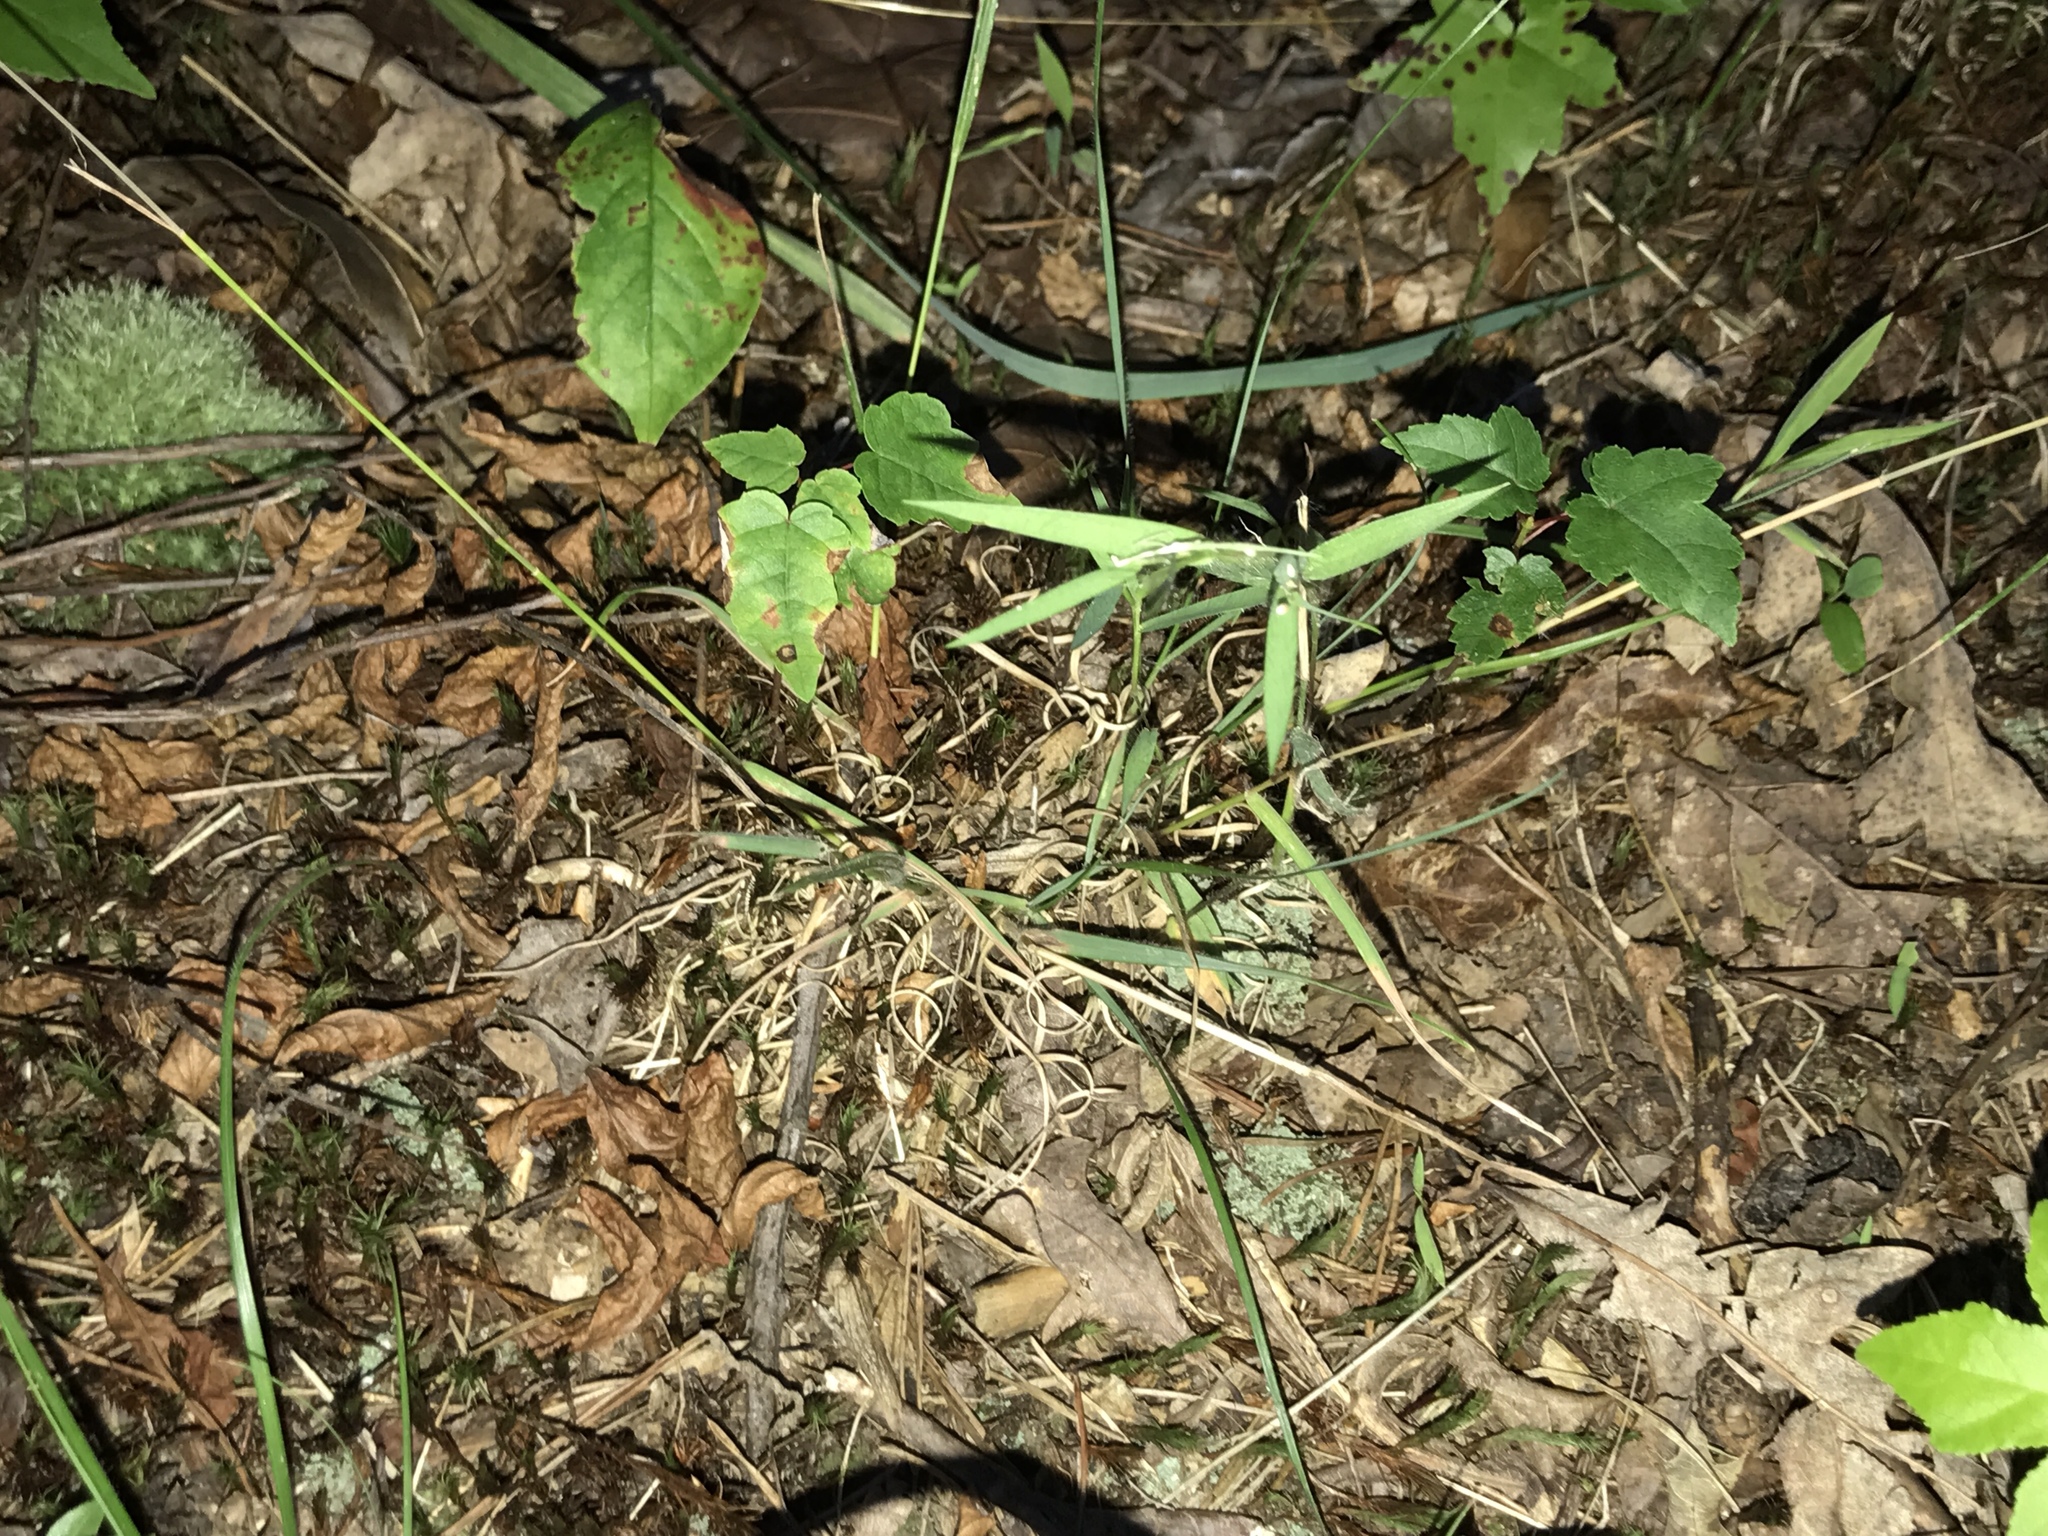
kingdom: Plantae
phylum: Tracheophyta
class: Liliopsida
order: Poales
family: Poaceae
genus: Danthonia
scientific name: Danthonia spicata
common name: Common wild oatgrass
